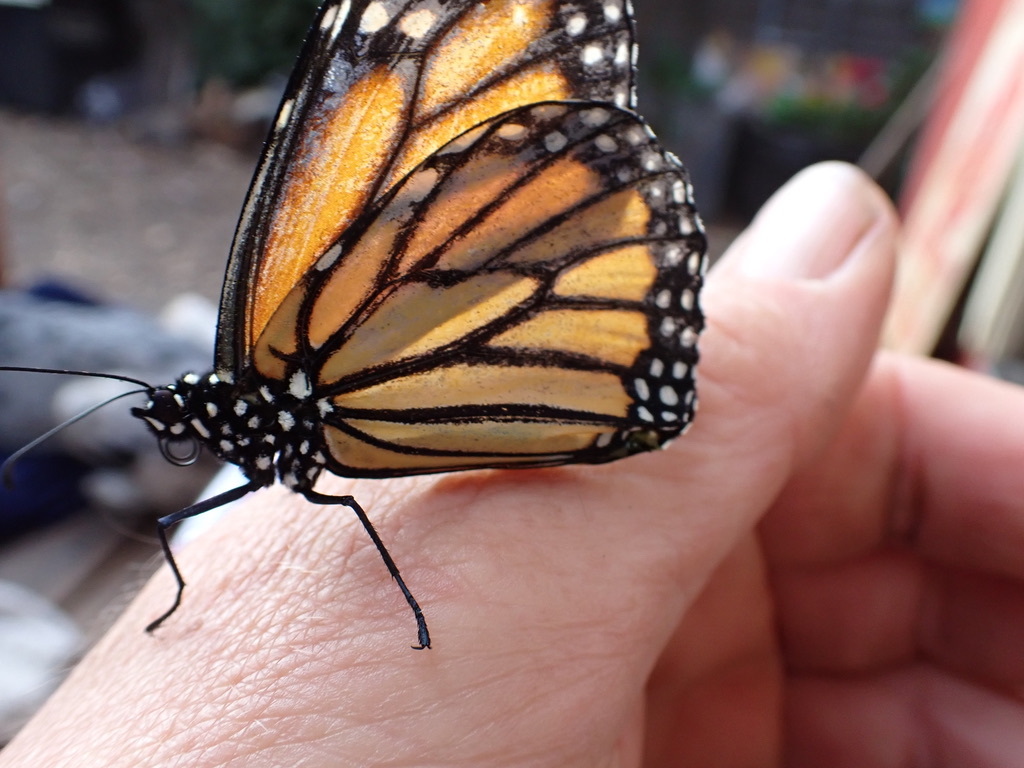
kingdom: Animalia
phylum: Arthropoda
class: Insecta
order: Lepidoptera
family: Nymphalidae
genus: Danaus
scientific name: Danaus plexippus
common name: Monarch
